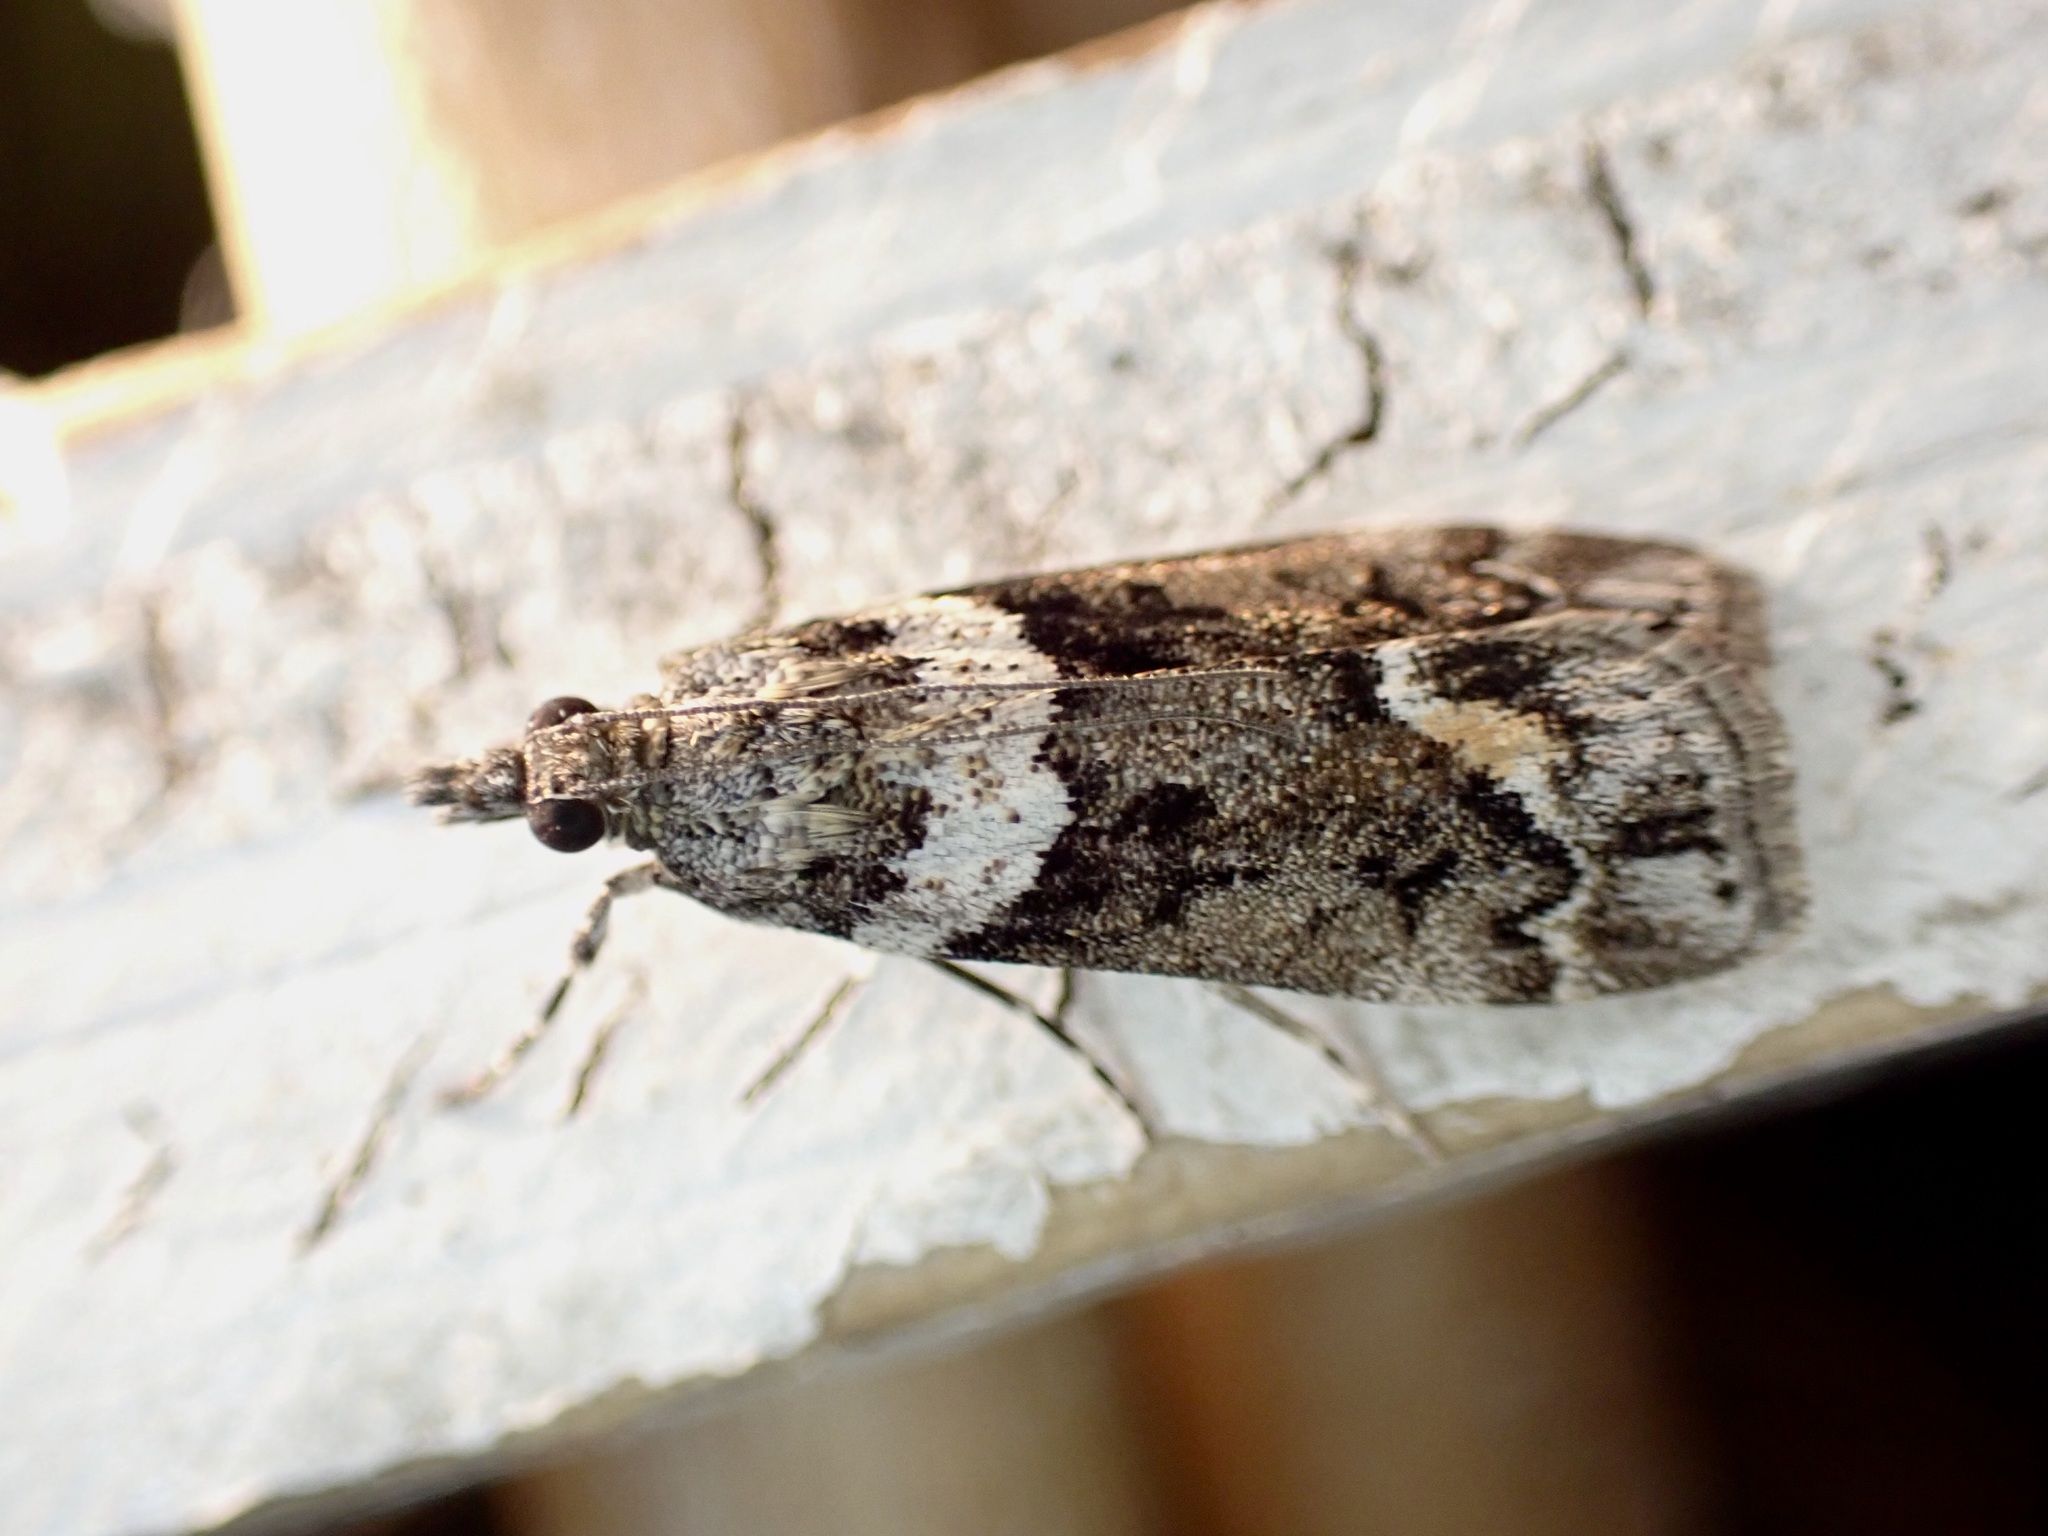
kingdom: Animalia
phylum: Arthropoda
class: Insecta
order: Lepidoptera
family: Crambidae
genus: Eudonia
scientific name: Eudonia submarginalis
